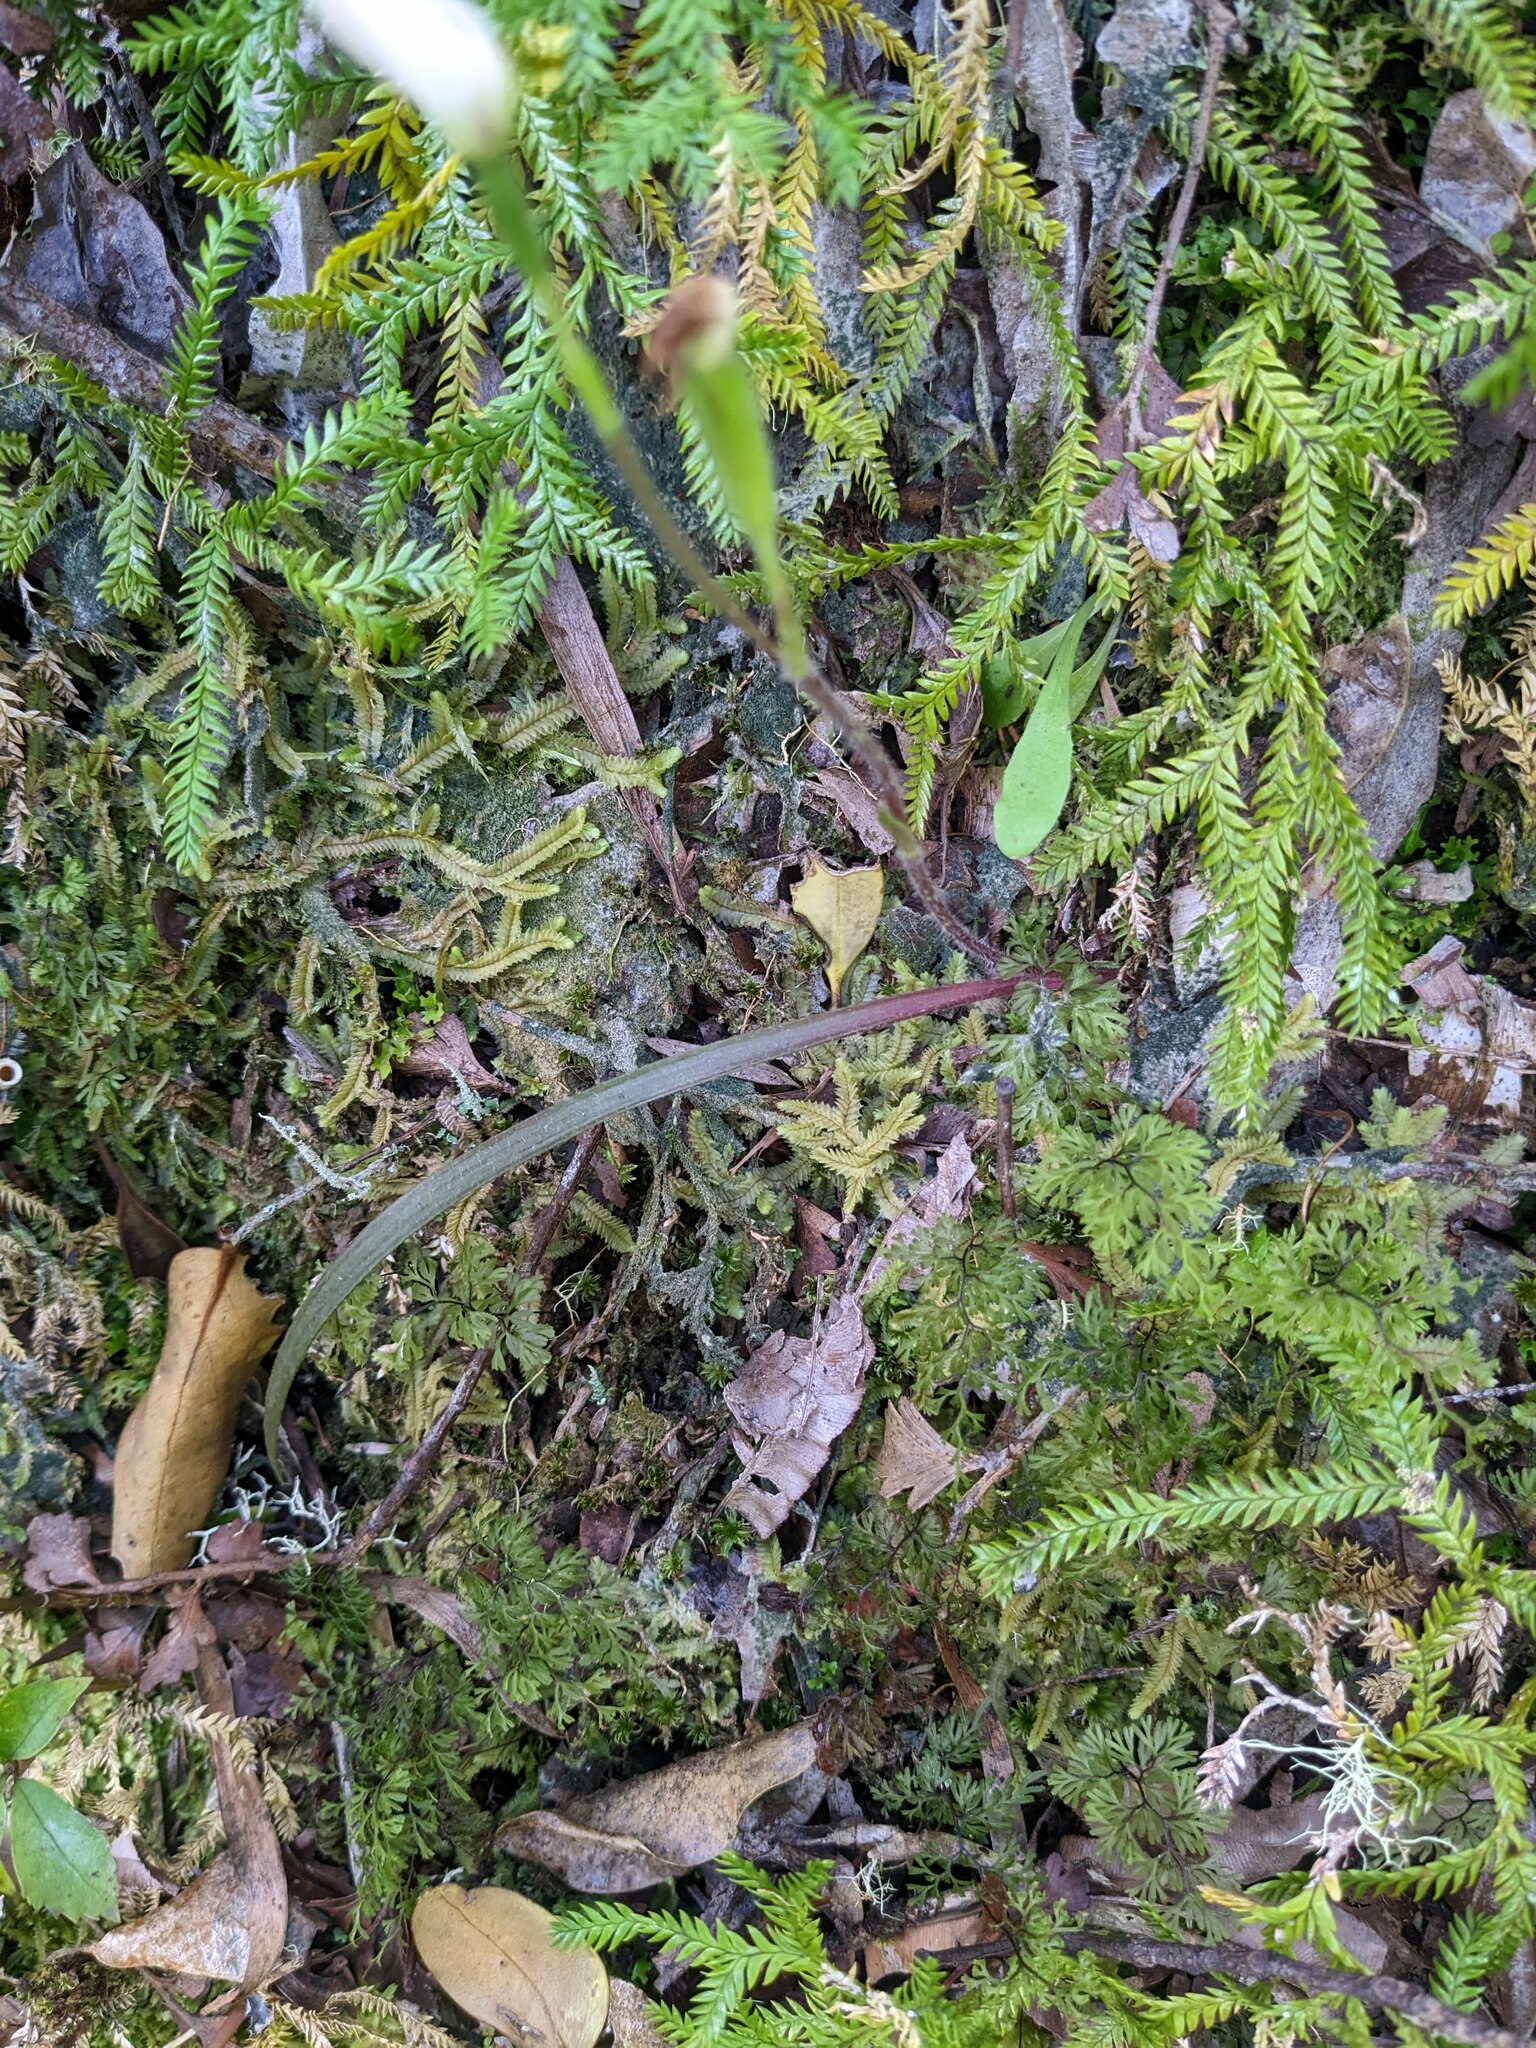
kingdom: Plantae
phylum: Tracheophyta
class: Liliopsida
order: Asparagales
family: Orchidaceae
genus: Caladenia
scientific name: Caladenia lyallii
